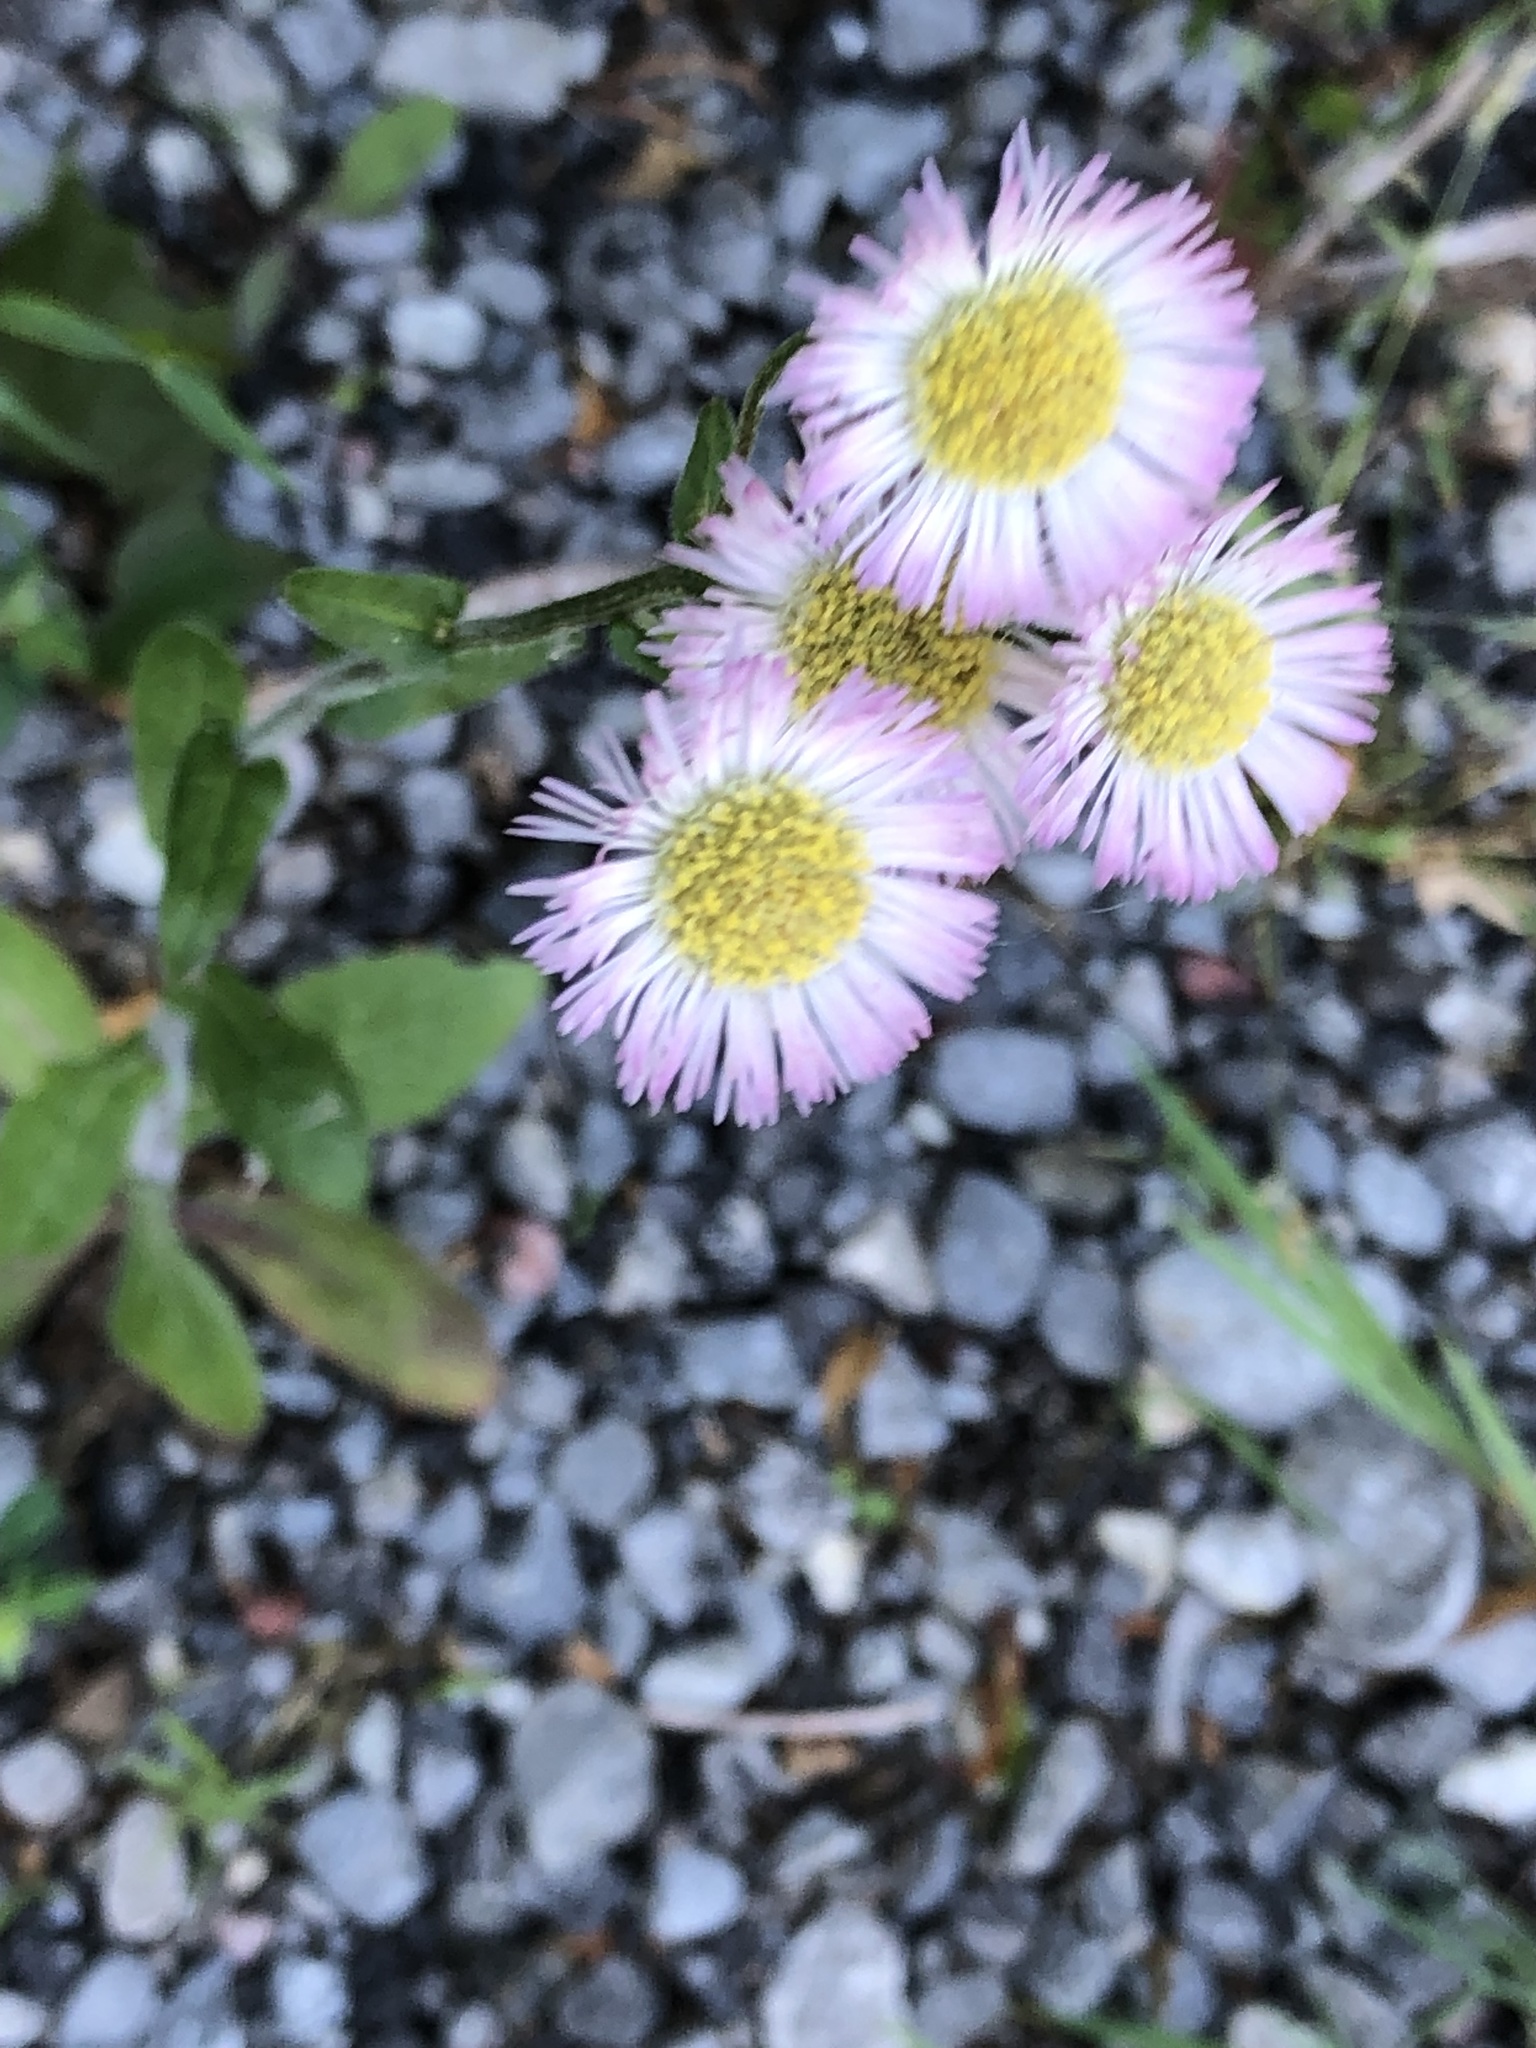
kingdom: Plantae
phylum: Tracheophyta
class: Magnoliopsida
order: Asterales
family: Asteraceae
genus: Erigeron
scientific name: Erigeron philadelphicus
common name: Robin's-plantain
